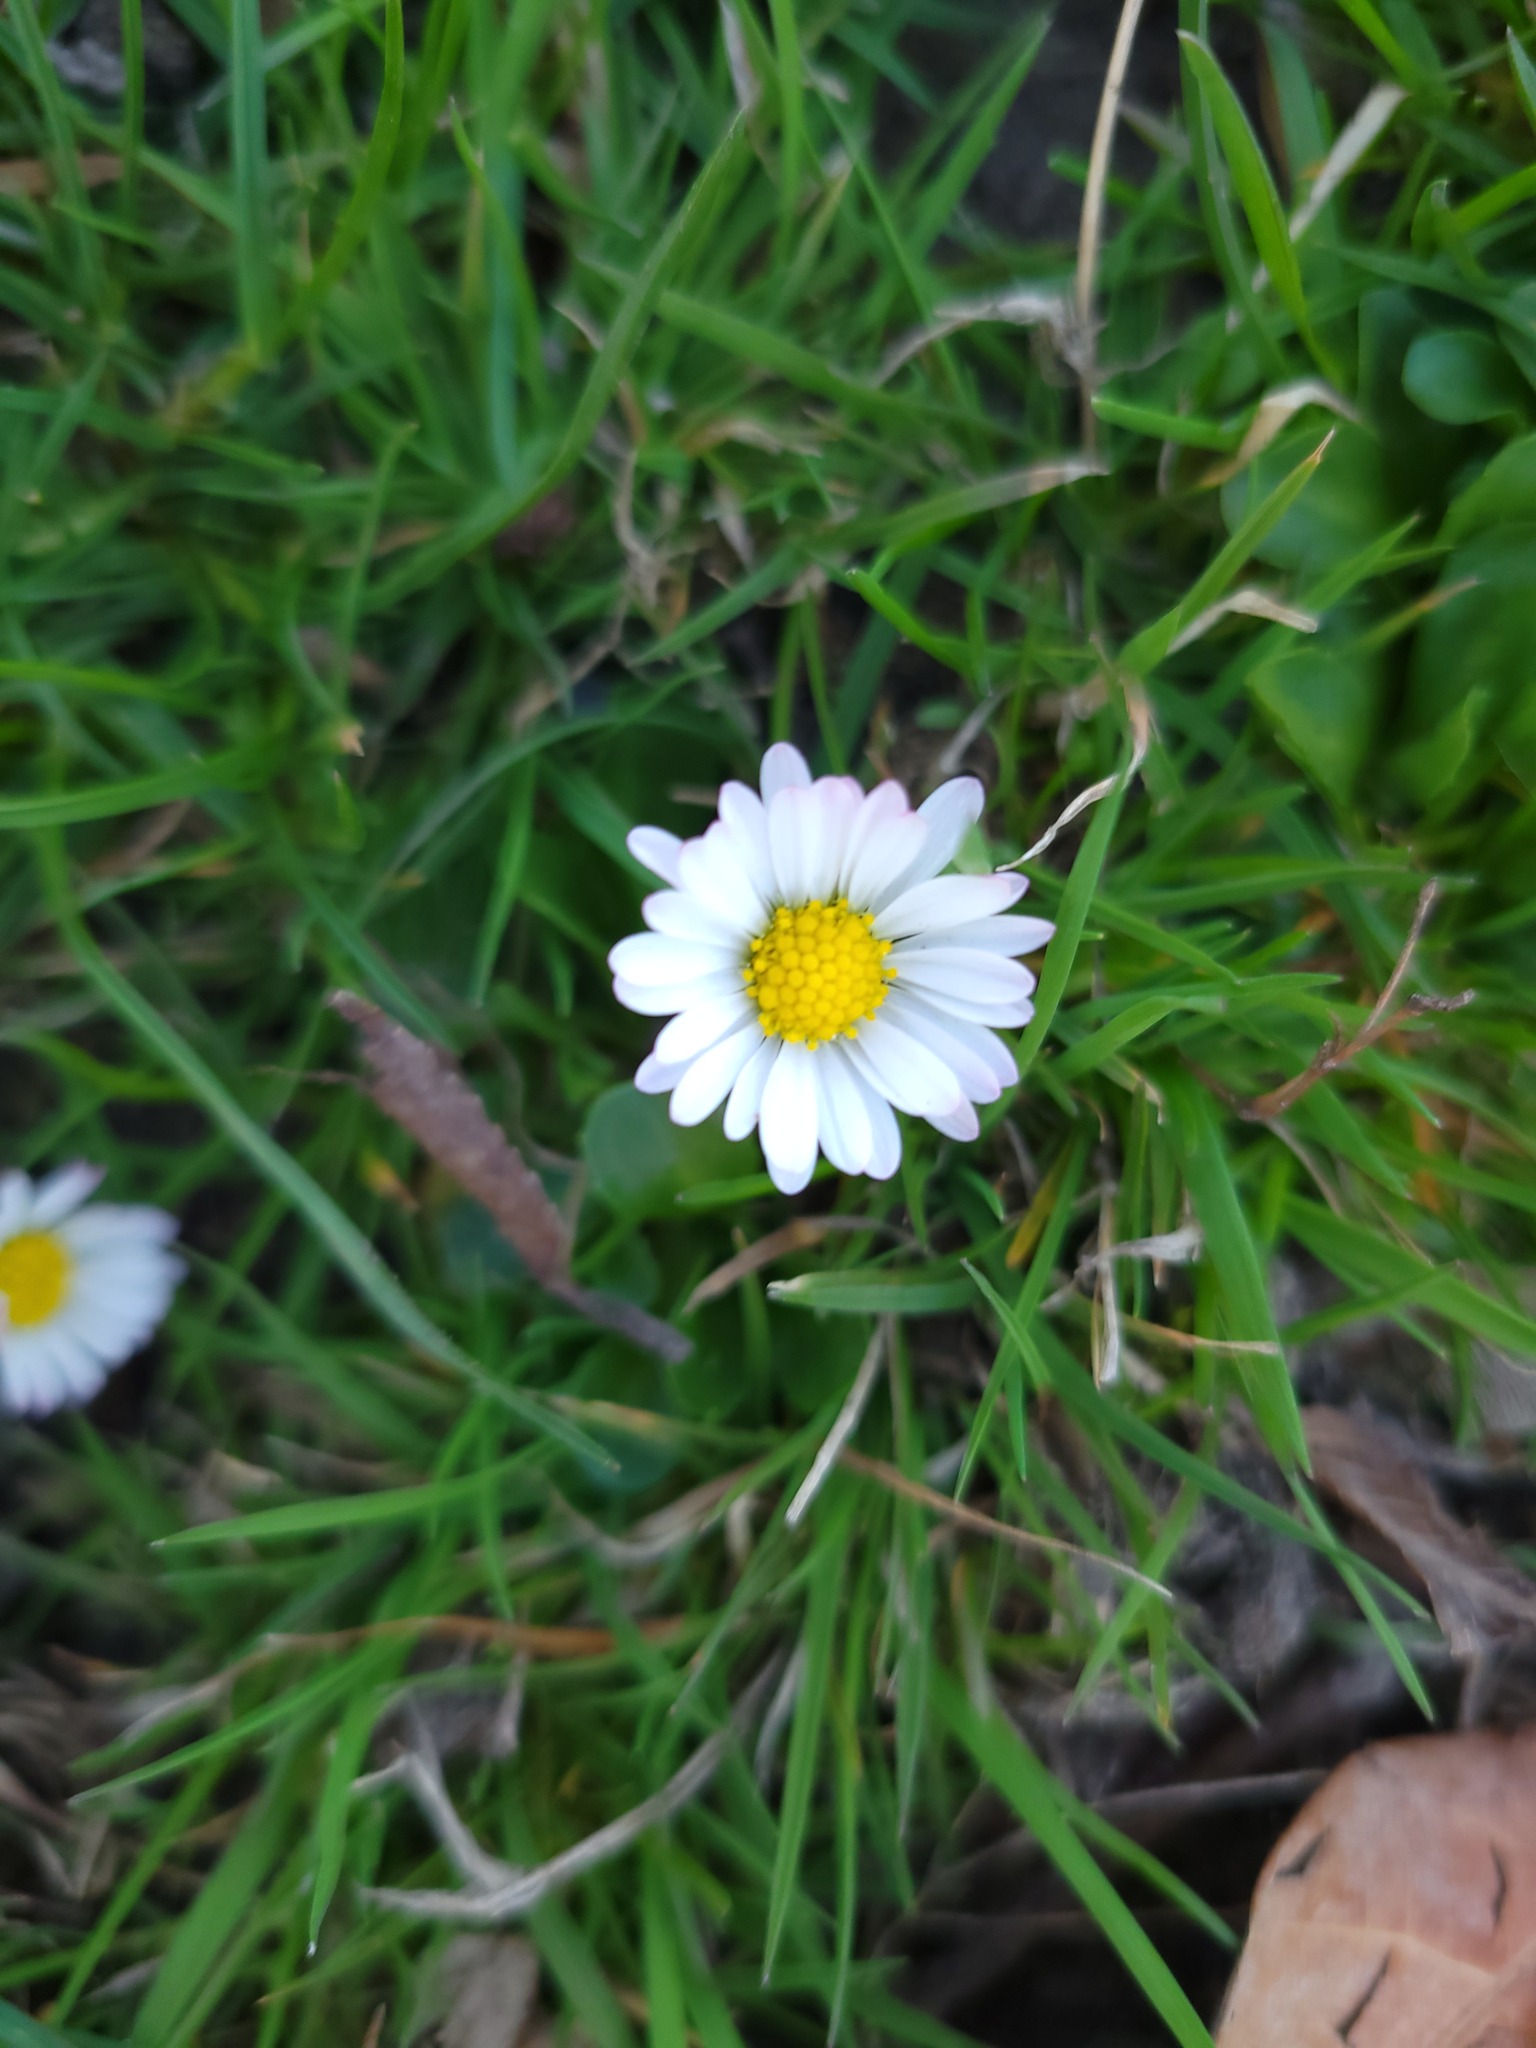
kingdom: Plantae
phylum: Tracheophyta
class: Magnoliopsida
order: Asterales
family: Asteraceae
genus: Bellis
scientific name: Bellis perennis
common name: Lawndaisy
